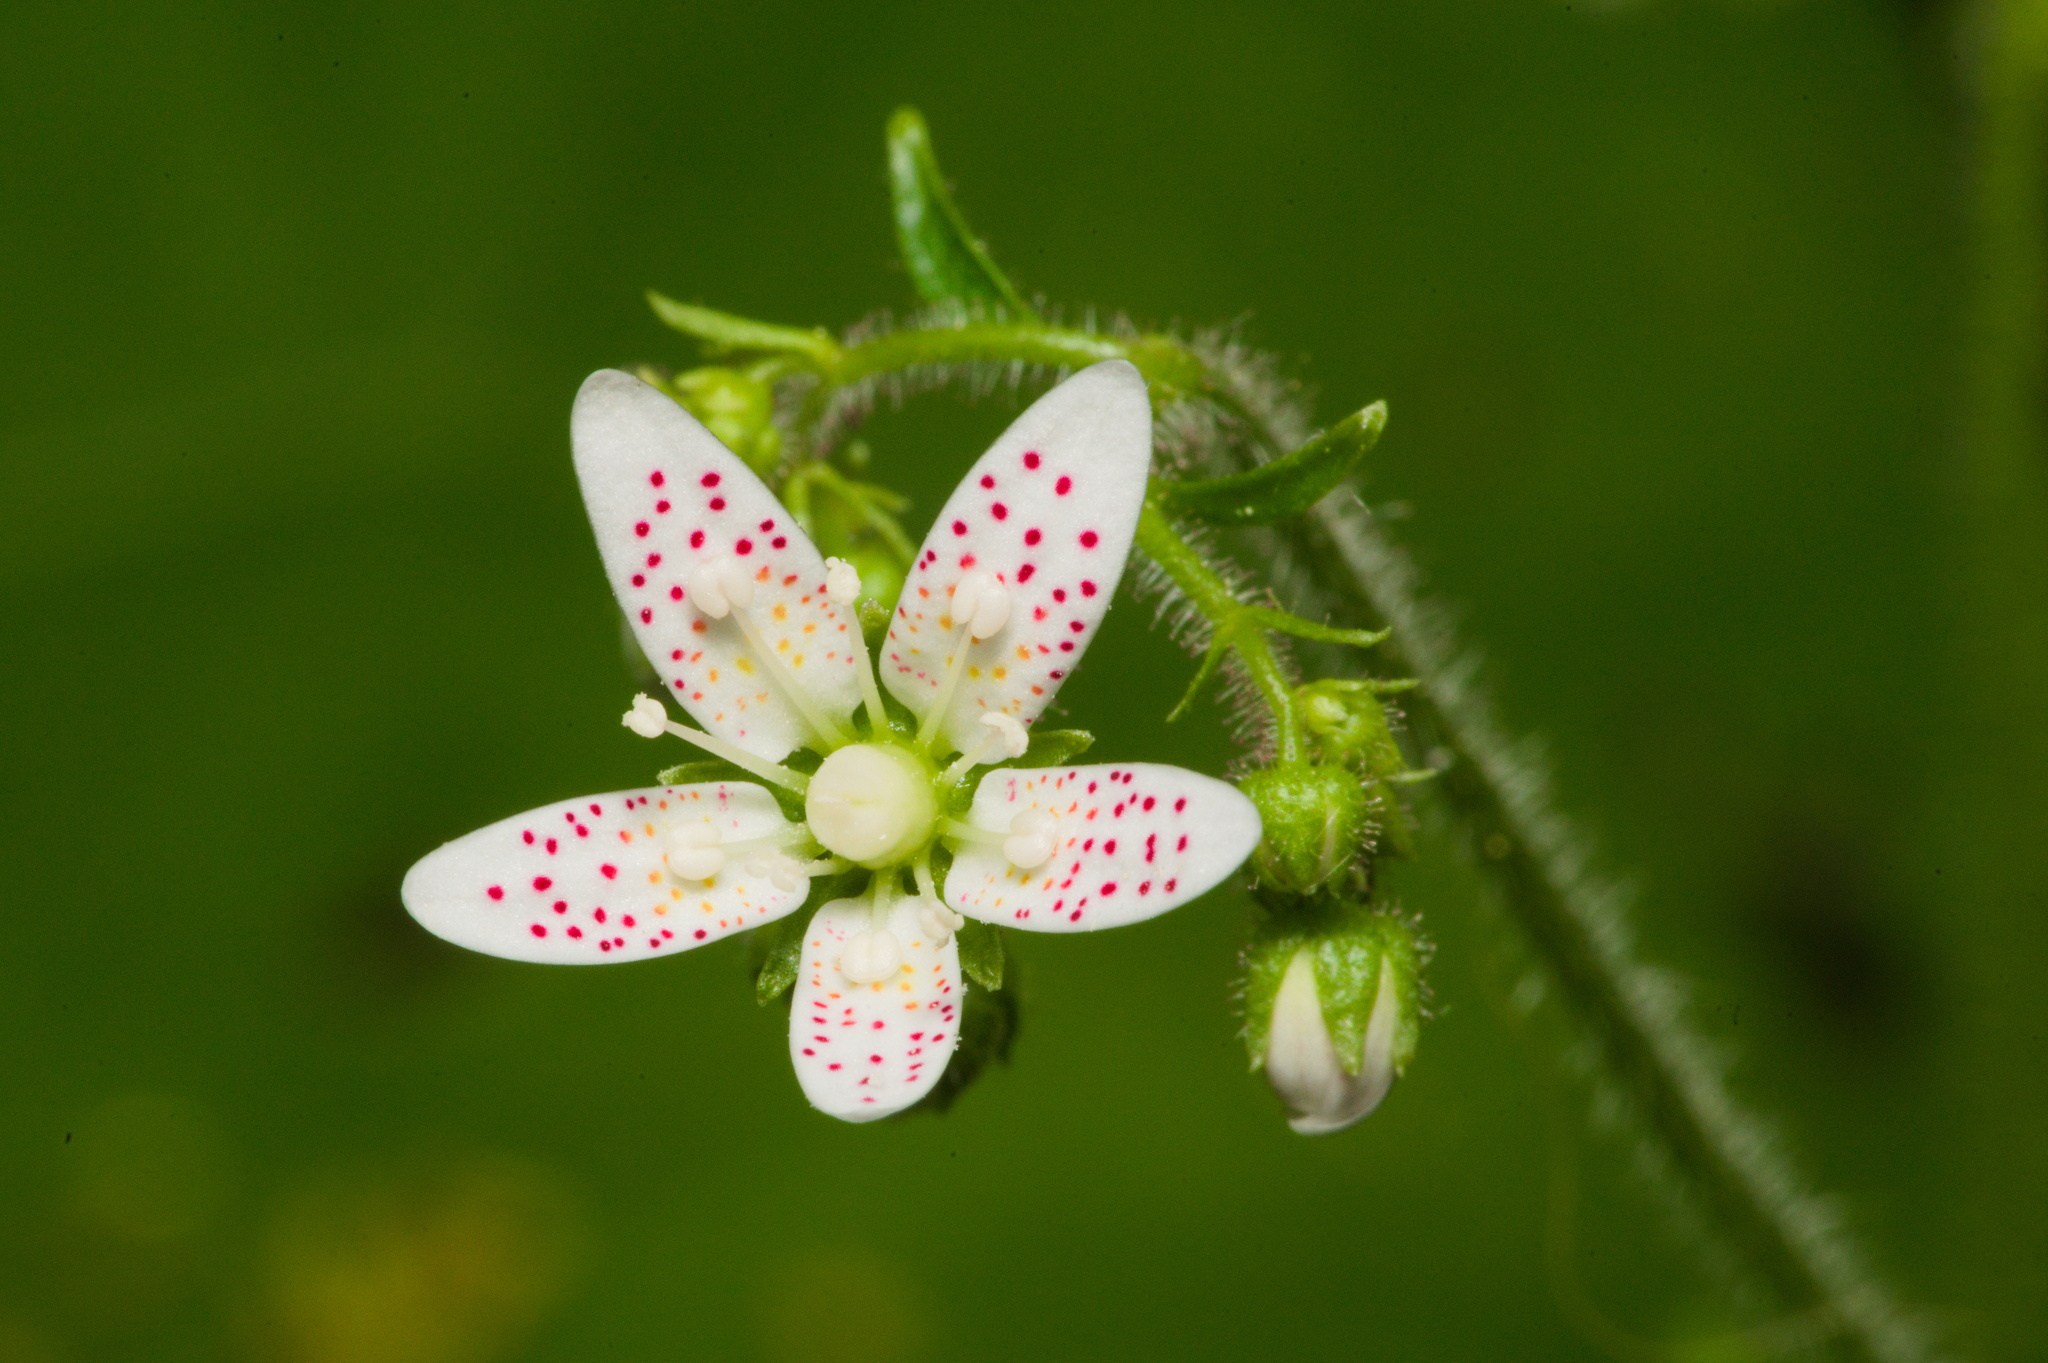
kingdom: Plantae
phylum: Tracheophyta
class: Magnoliopsida
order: Saxifragales
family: Saxifragaceae
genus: Saxifraga
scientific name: Saxifraga rotundifolia
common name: Round-leaved saxifrage
